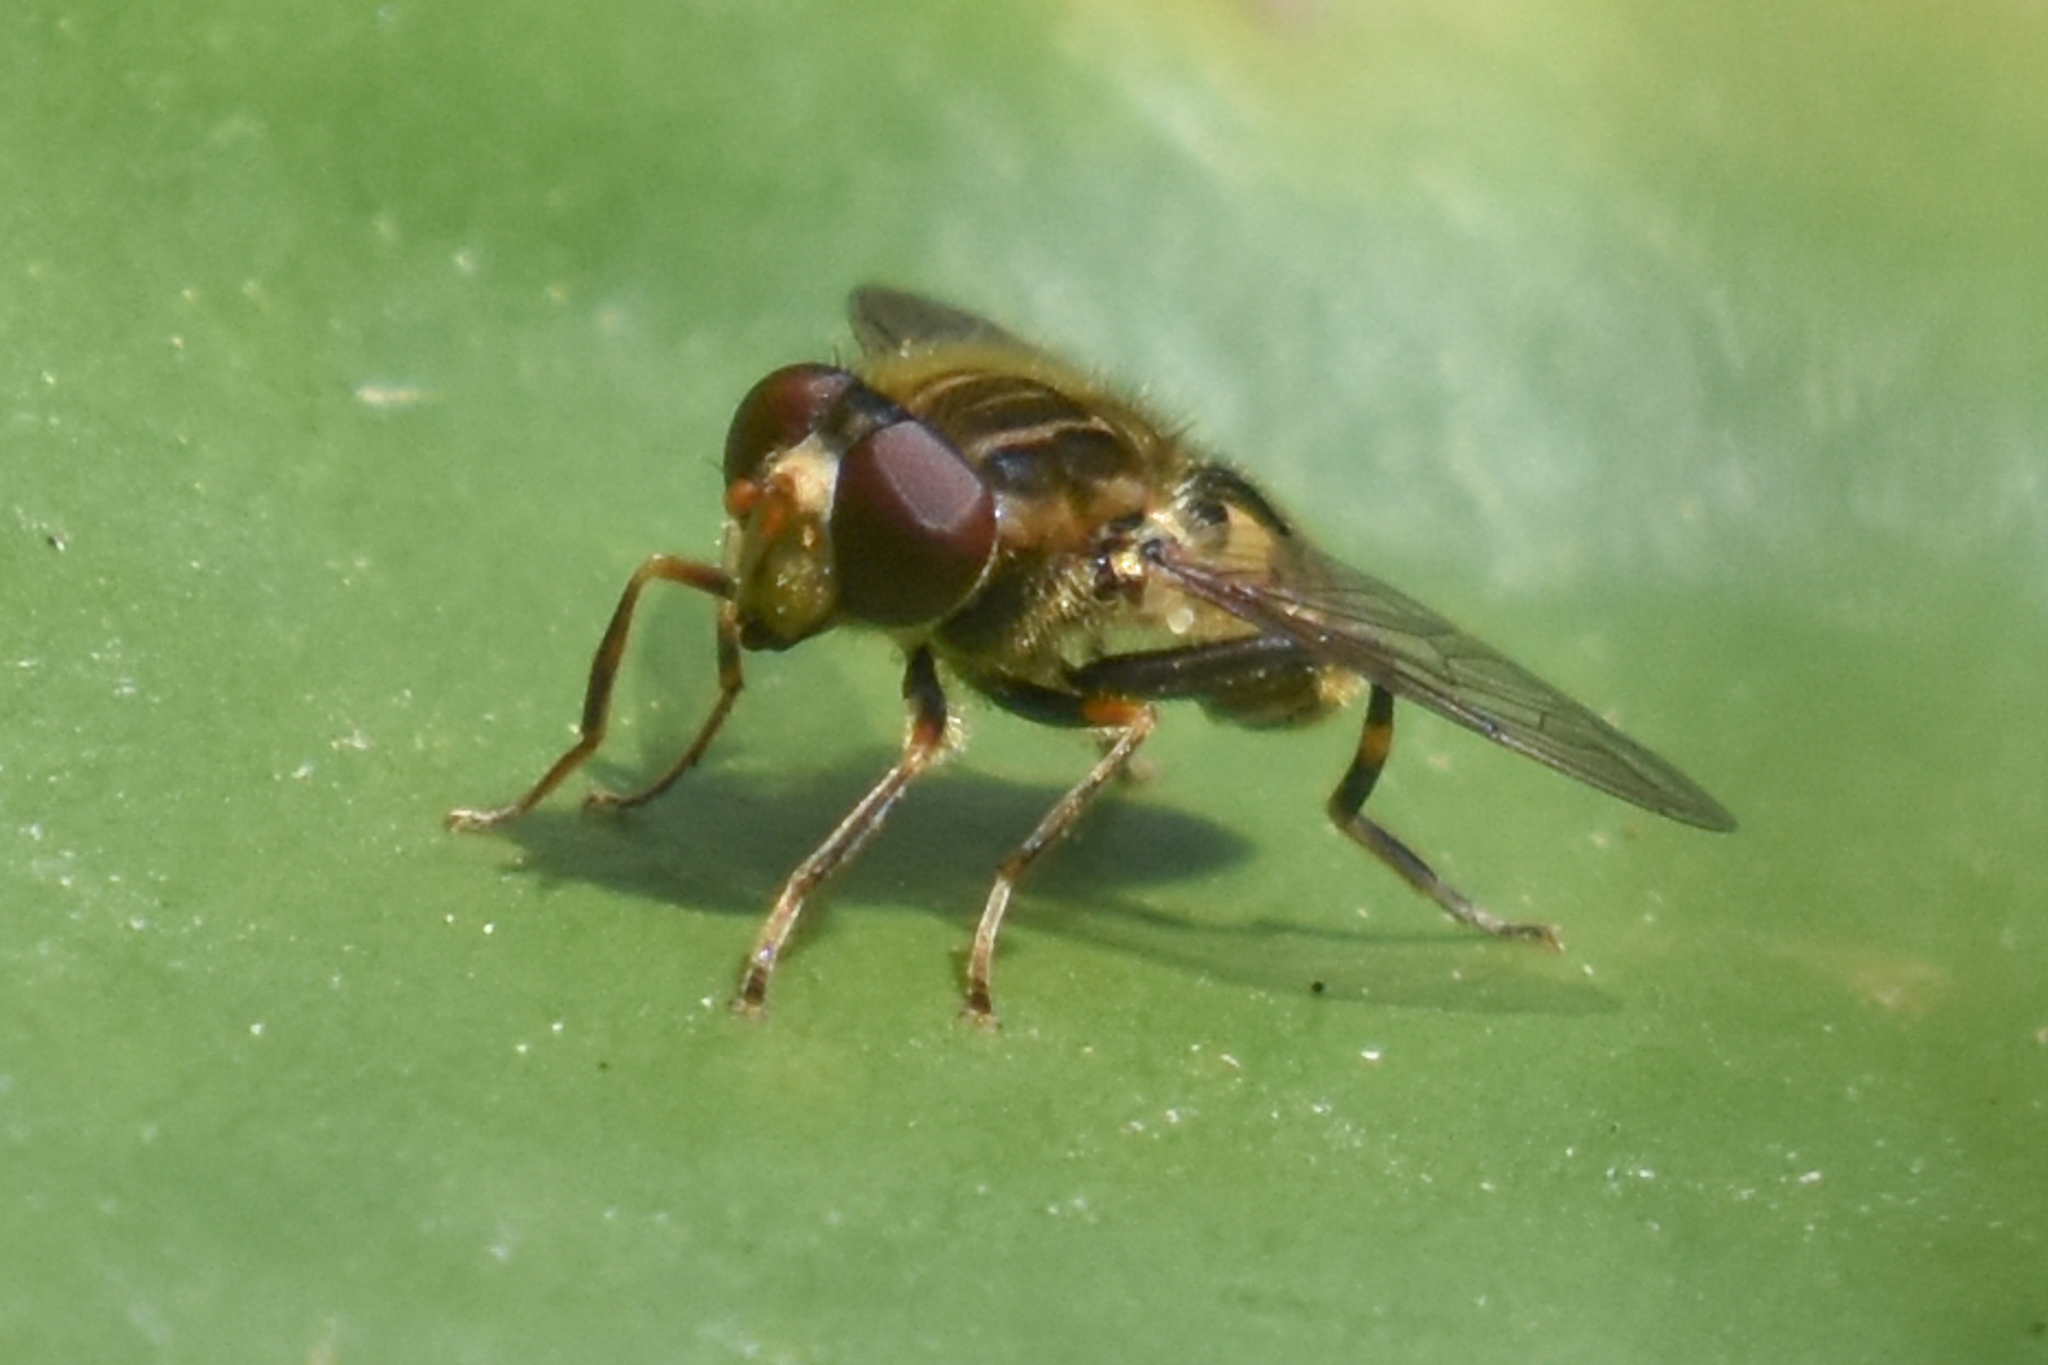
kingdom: Animalia
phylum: Arthropoda
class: Insecta
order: Diptera
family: Syrphidae
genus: Parhelophilus
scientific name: Parhelophilus rex
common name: Dusky bog fly
